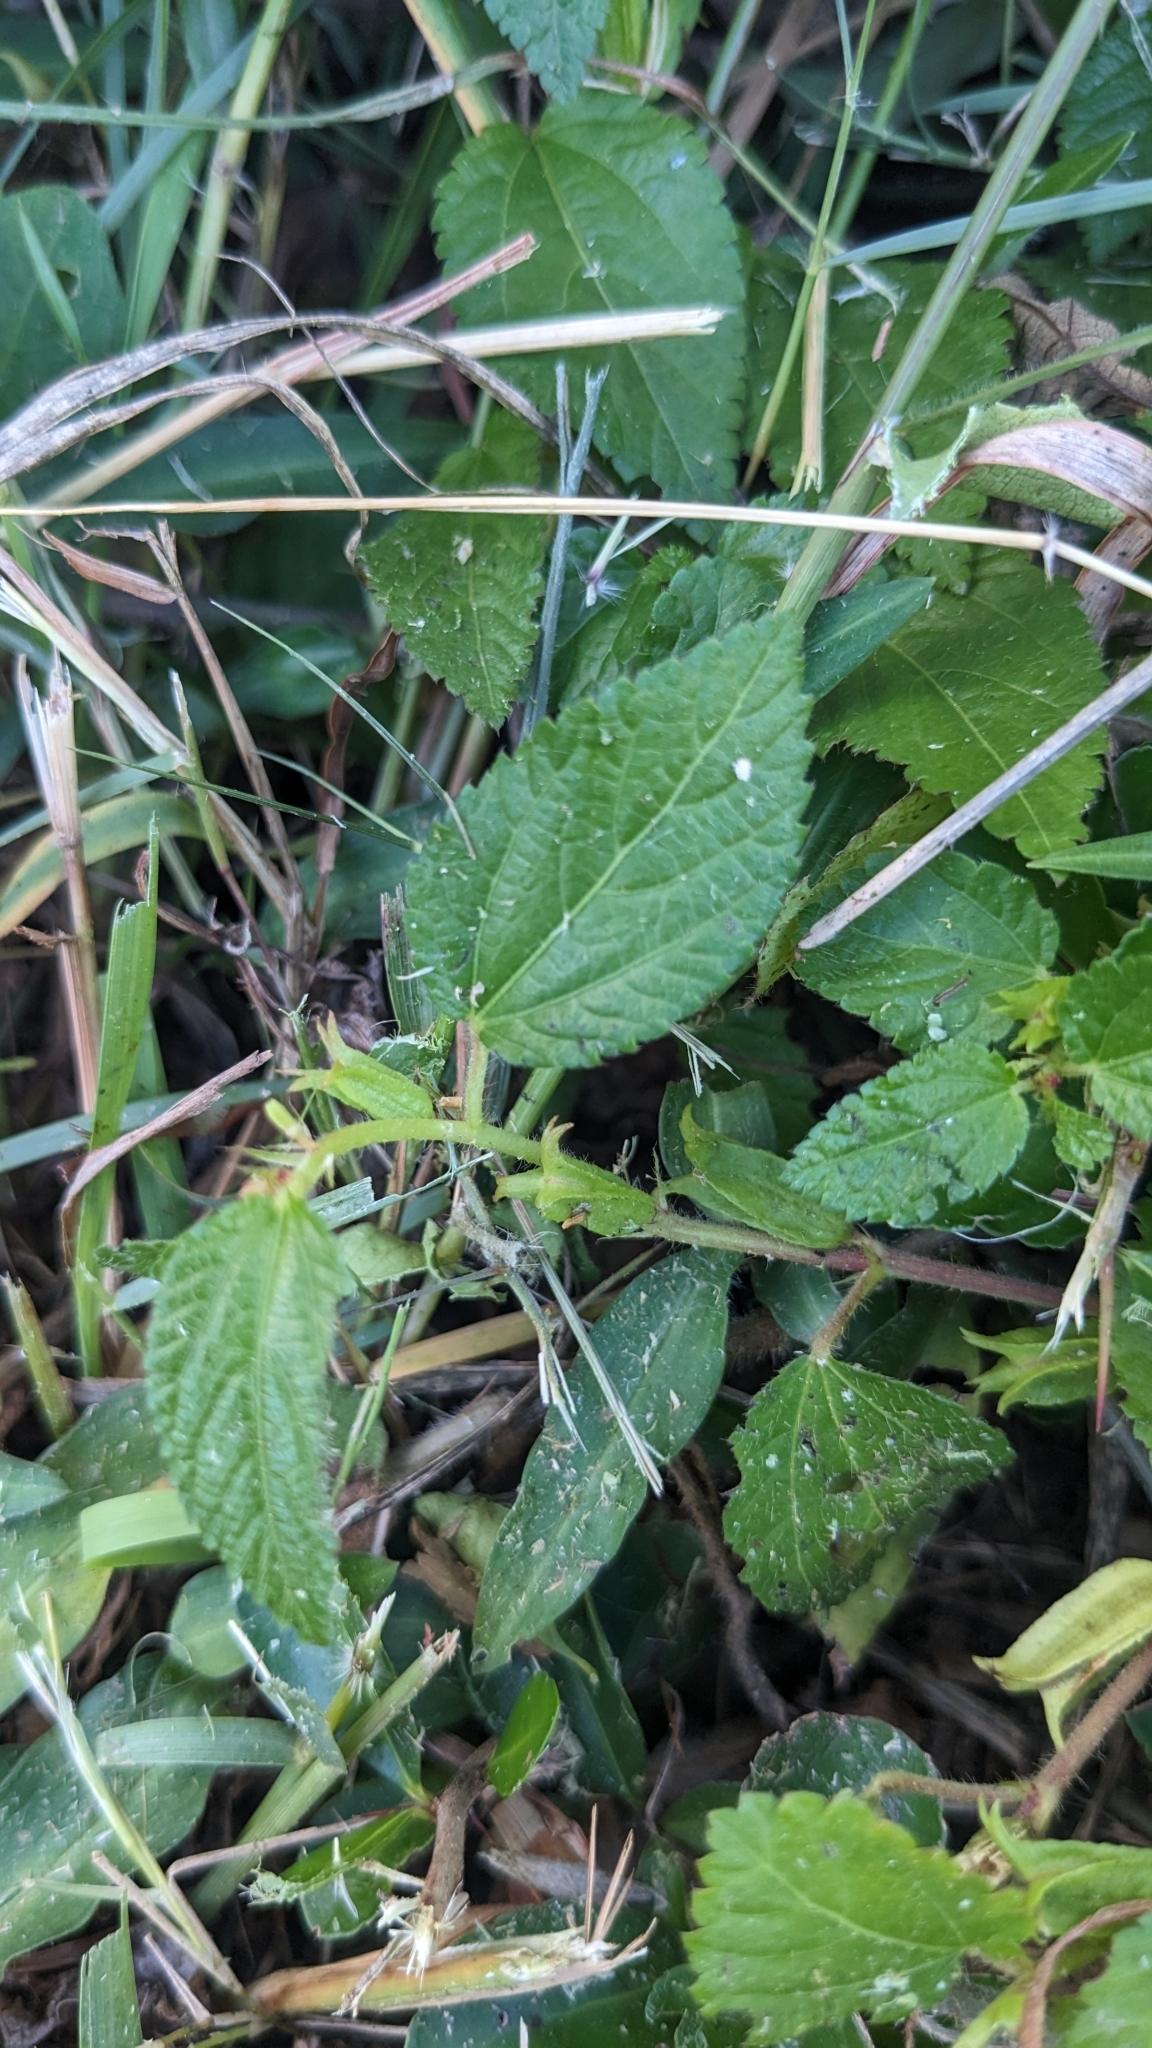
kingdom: Plantae
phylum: Tracheophyta
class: Magnoliopsida
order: Malvales
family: Malvaceae
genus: Corchorus
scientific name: Corchorus aestuans
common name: Jute
